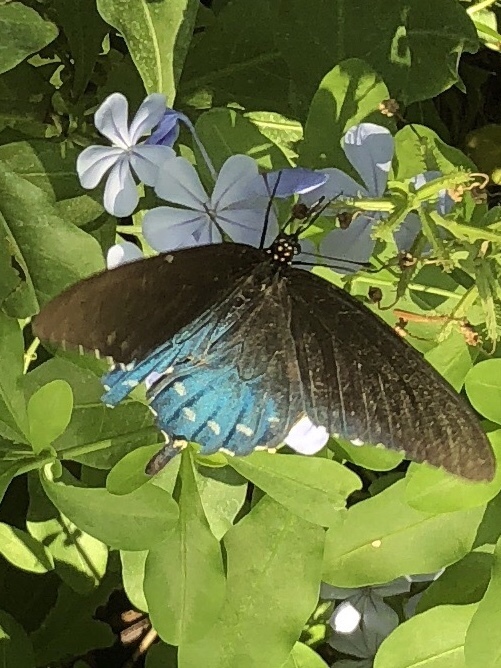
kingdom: Animalia
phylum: Arthropoda
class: Insecta
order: Lepidoptera
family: Papilionidae
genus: Battus
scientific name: Battus philenor
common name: Pipevine swallowtail
